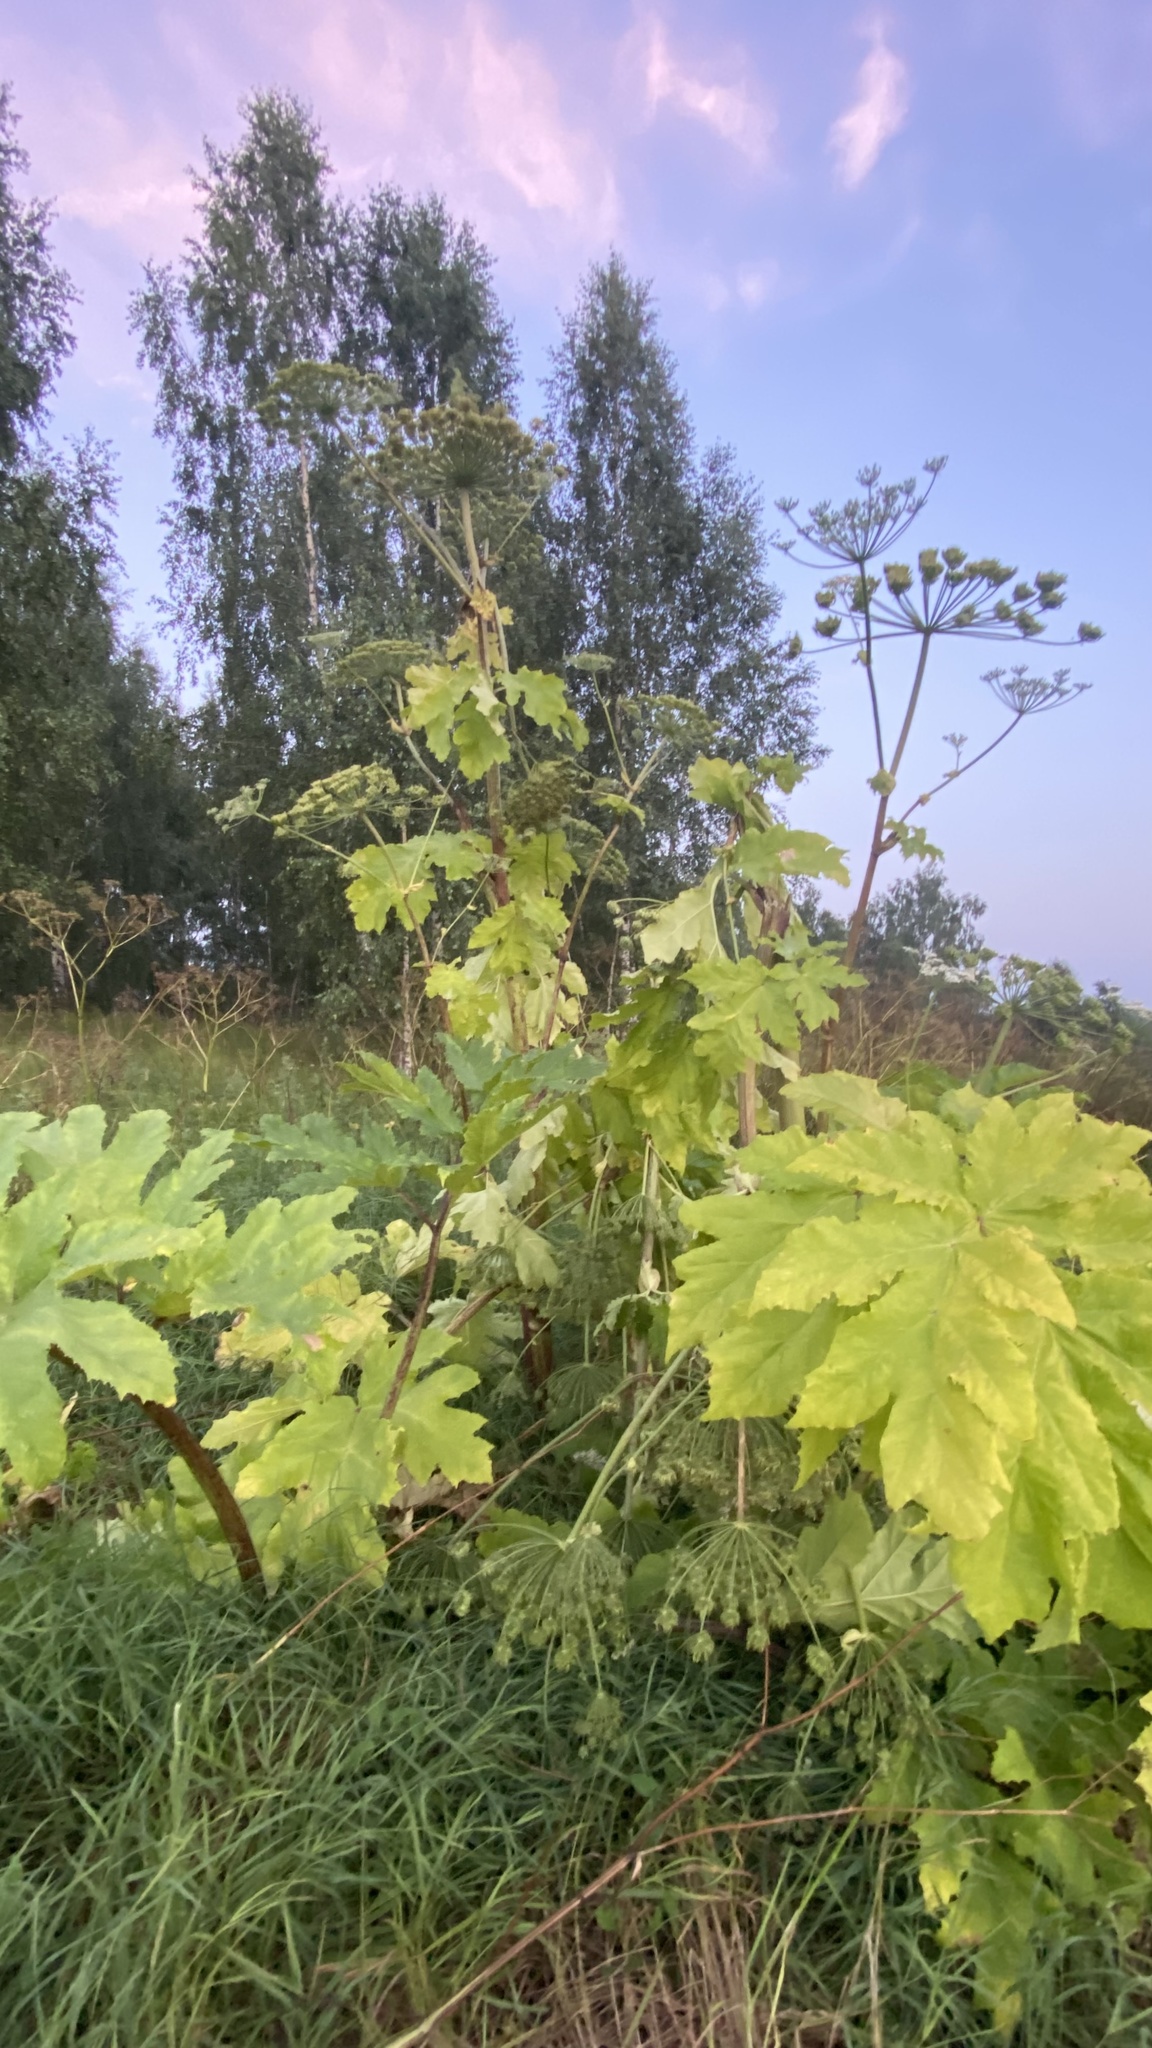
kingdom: Plantae
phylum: Tracheophyta
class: Magnoliopsida
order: Apiales
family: Apiaceae
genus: Heracleum
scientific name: Heracleum sosnowskyi
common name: Sosnowsky's hogweed
